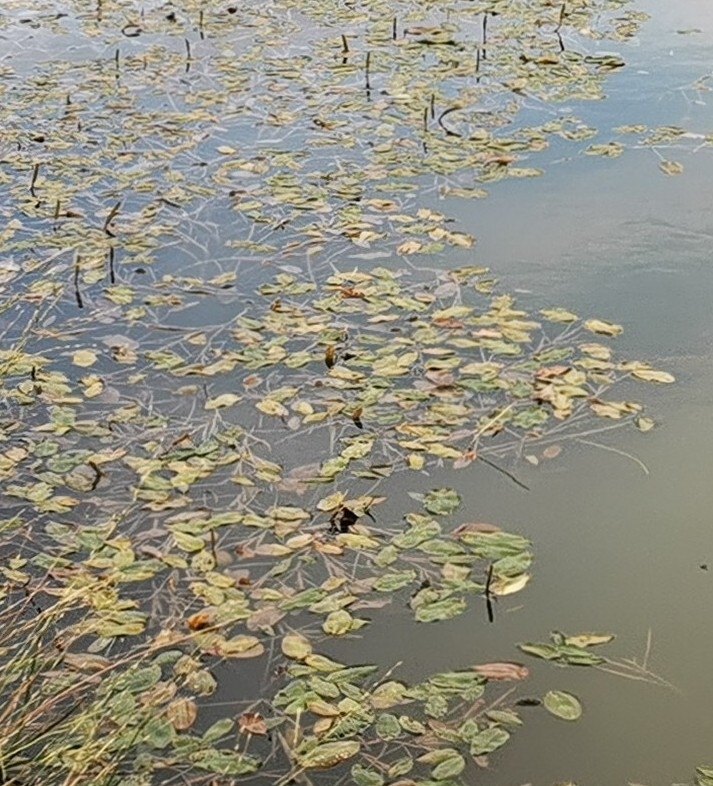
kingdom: Plantae
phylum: Tracheophyta
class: Liliopsida
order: Alismatales
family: Potamogetonaceae
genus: Potamogeton
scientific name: Potamogeton natans
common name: Broad-leaved pondweed
